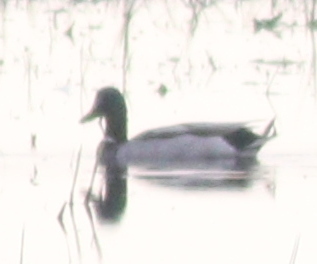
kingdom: Animalia
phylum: Chordata
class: Aves
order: Anseriformes
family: Anatidae
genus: Anas
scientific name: Anas platyrhynchos
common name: Mallard
